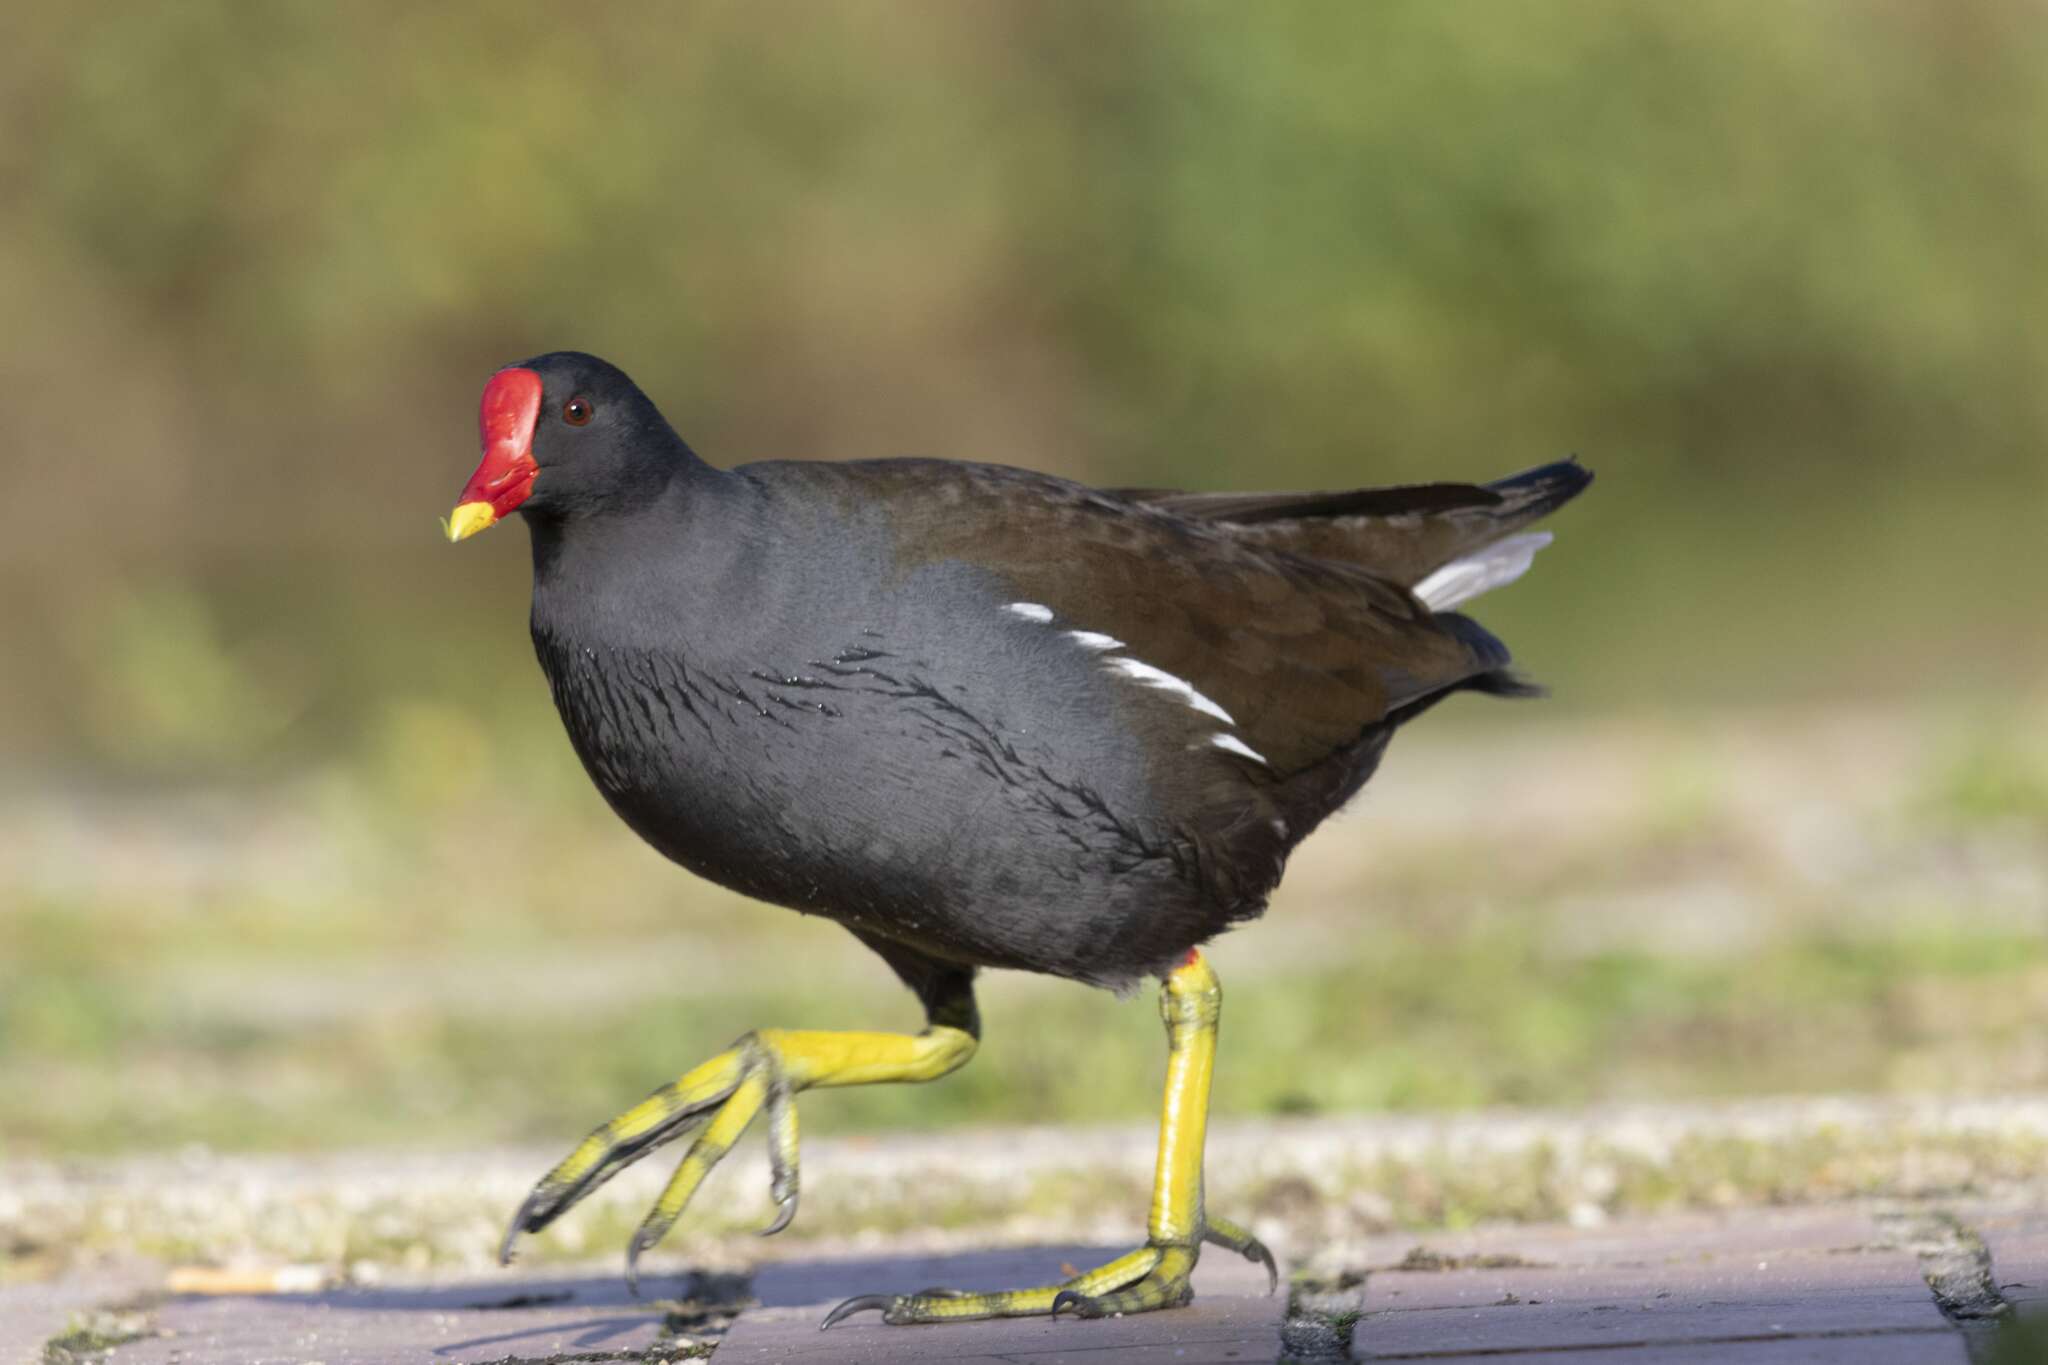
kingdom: Animalia
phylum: Chordata
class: Aves
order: Gruiformes
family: Rallidae
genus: Gallinula
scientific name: Gallinula chloropus
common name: Common moorhen
